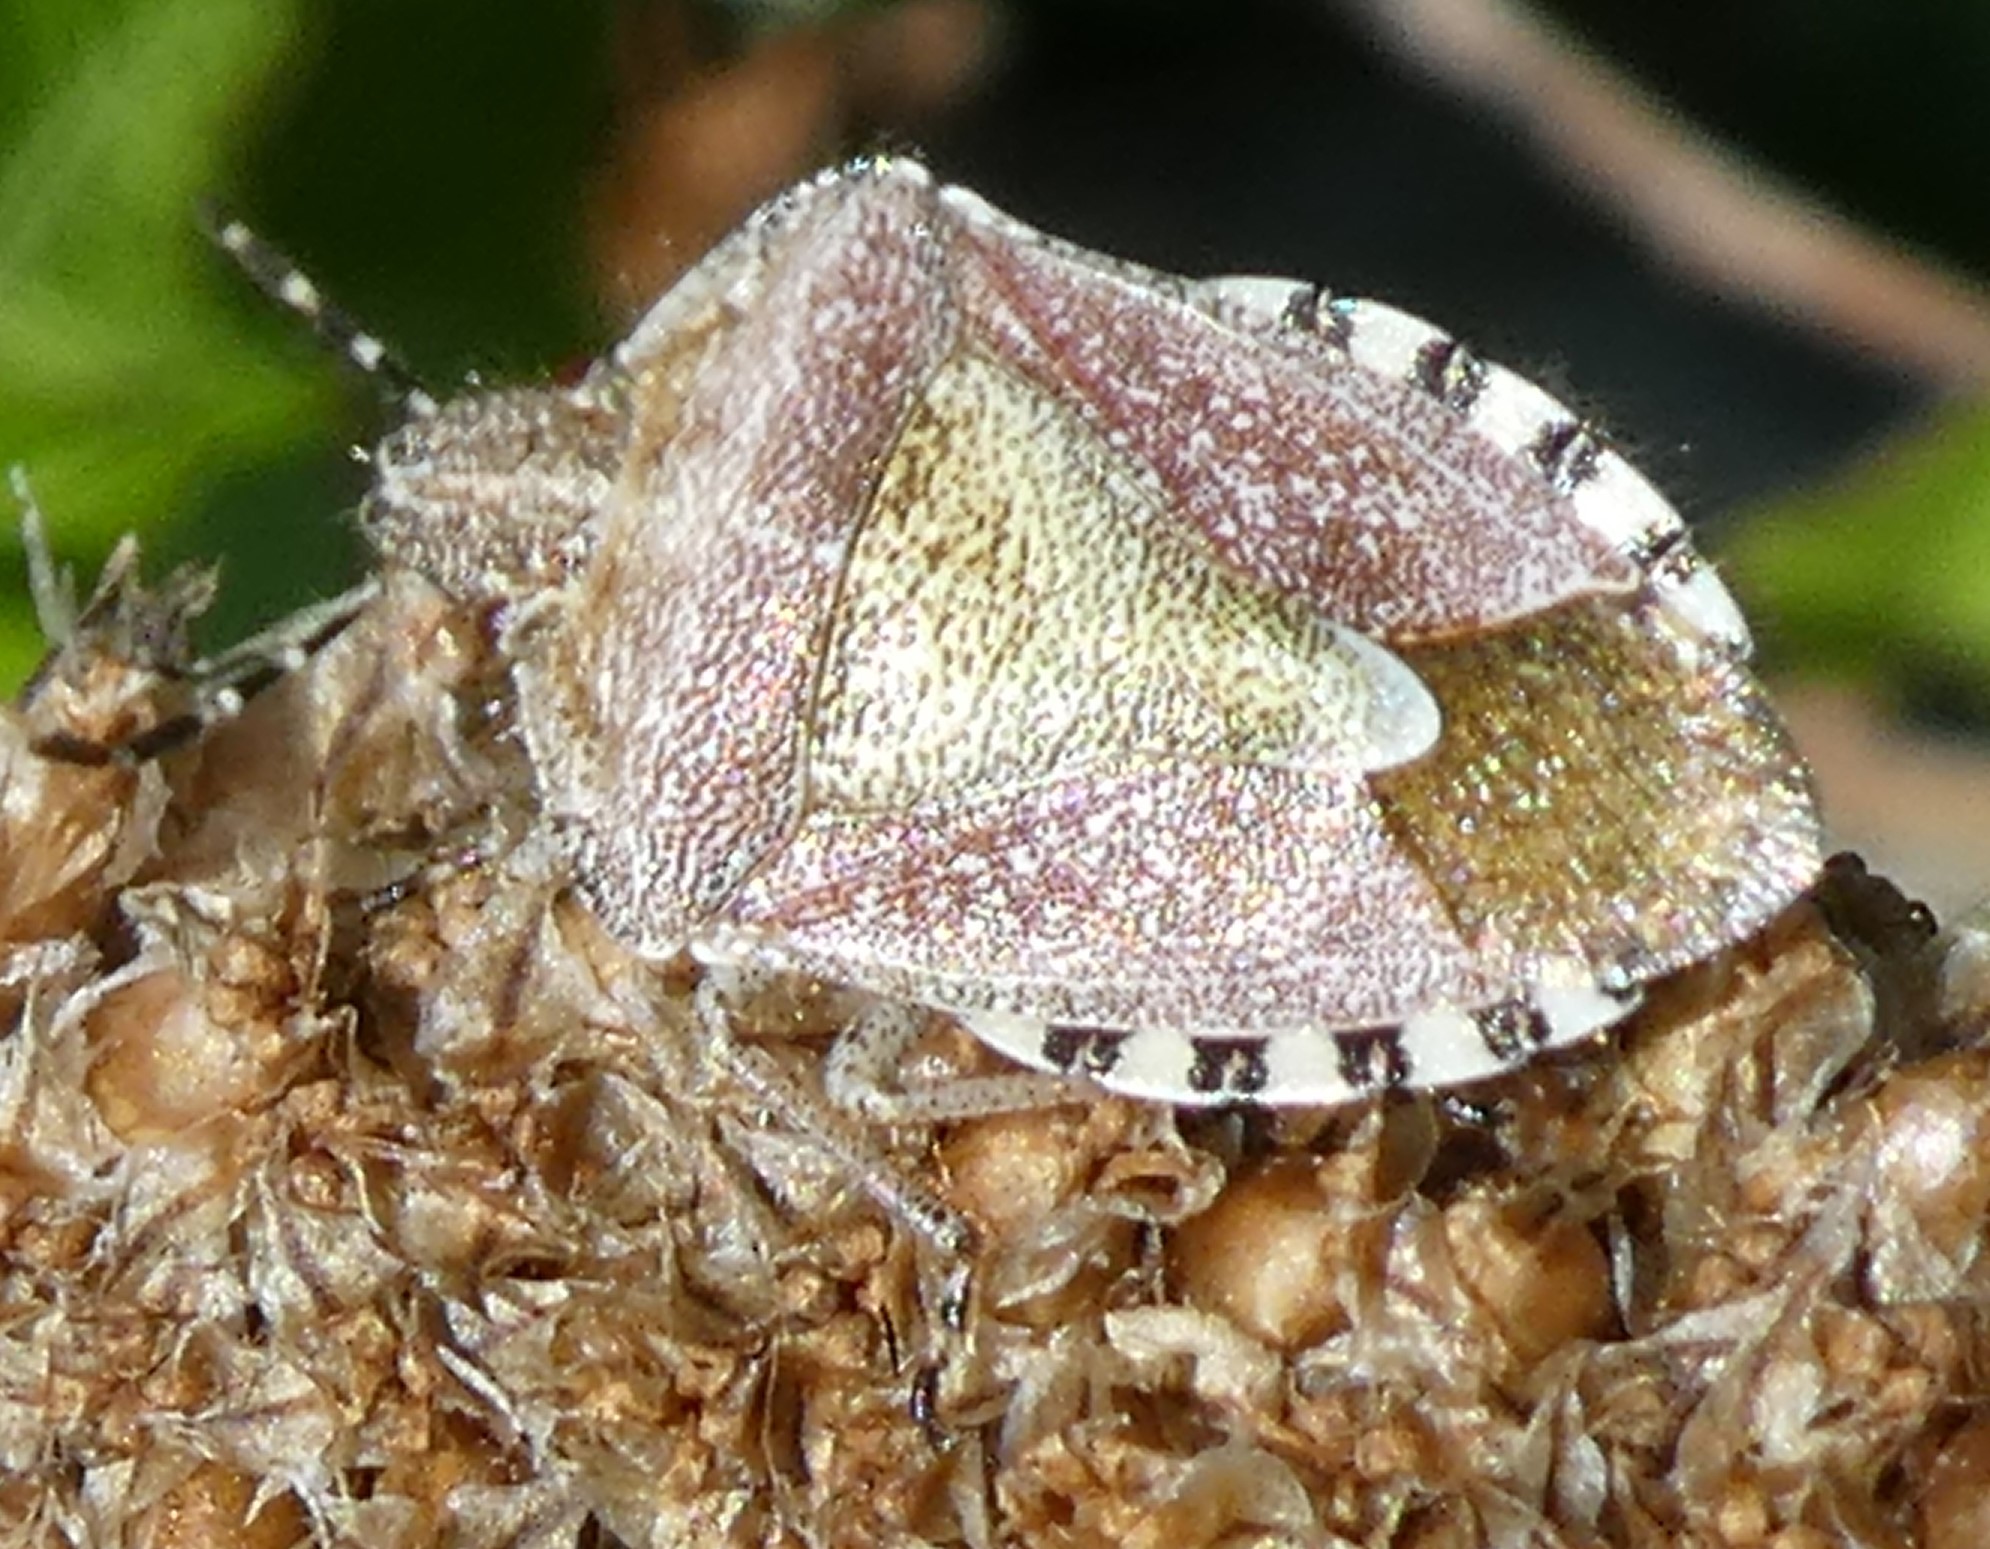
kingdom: Animalia
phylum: Arthropoda
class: Insecta
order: Hemiptera
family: Pentatomidae
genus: Dolycoris
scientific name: Dolycoris baccarum
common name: Sloe bug
